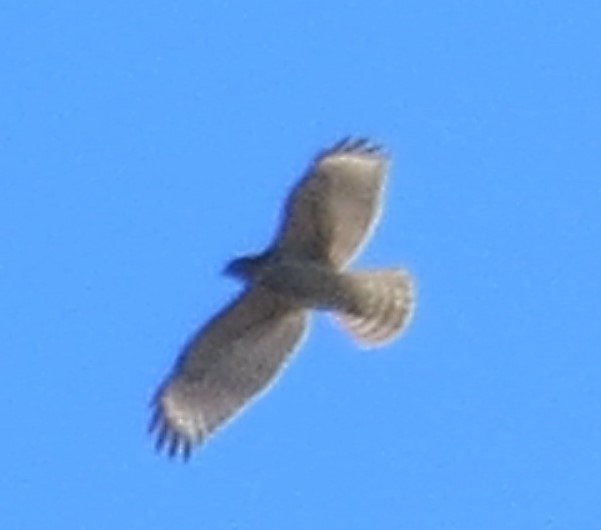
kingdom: Animalia
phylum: Chordata
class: Aves
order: Accipitriformes
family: Accipitridae
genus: Buteo
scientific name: Buteo lineatus
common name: Red-shouldered hawk
